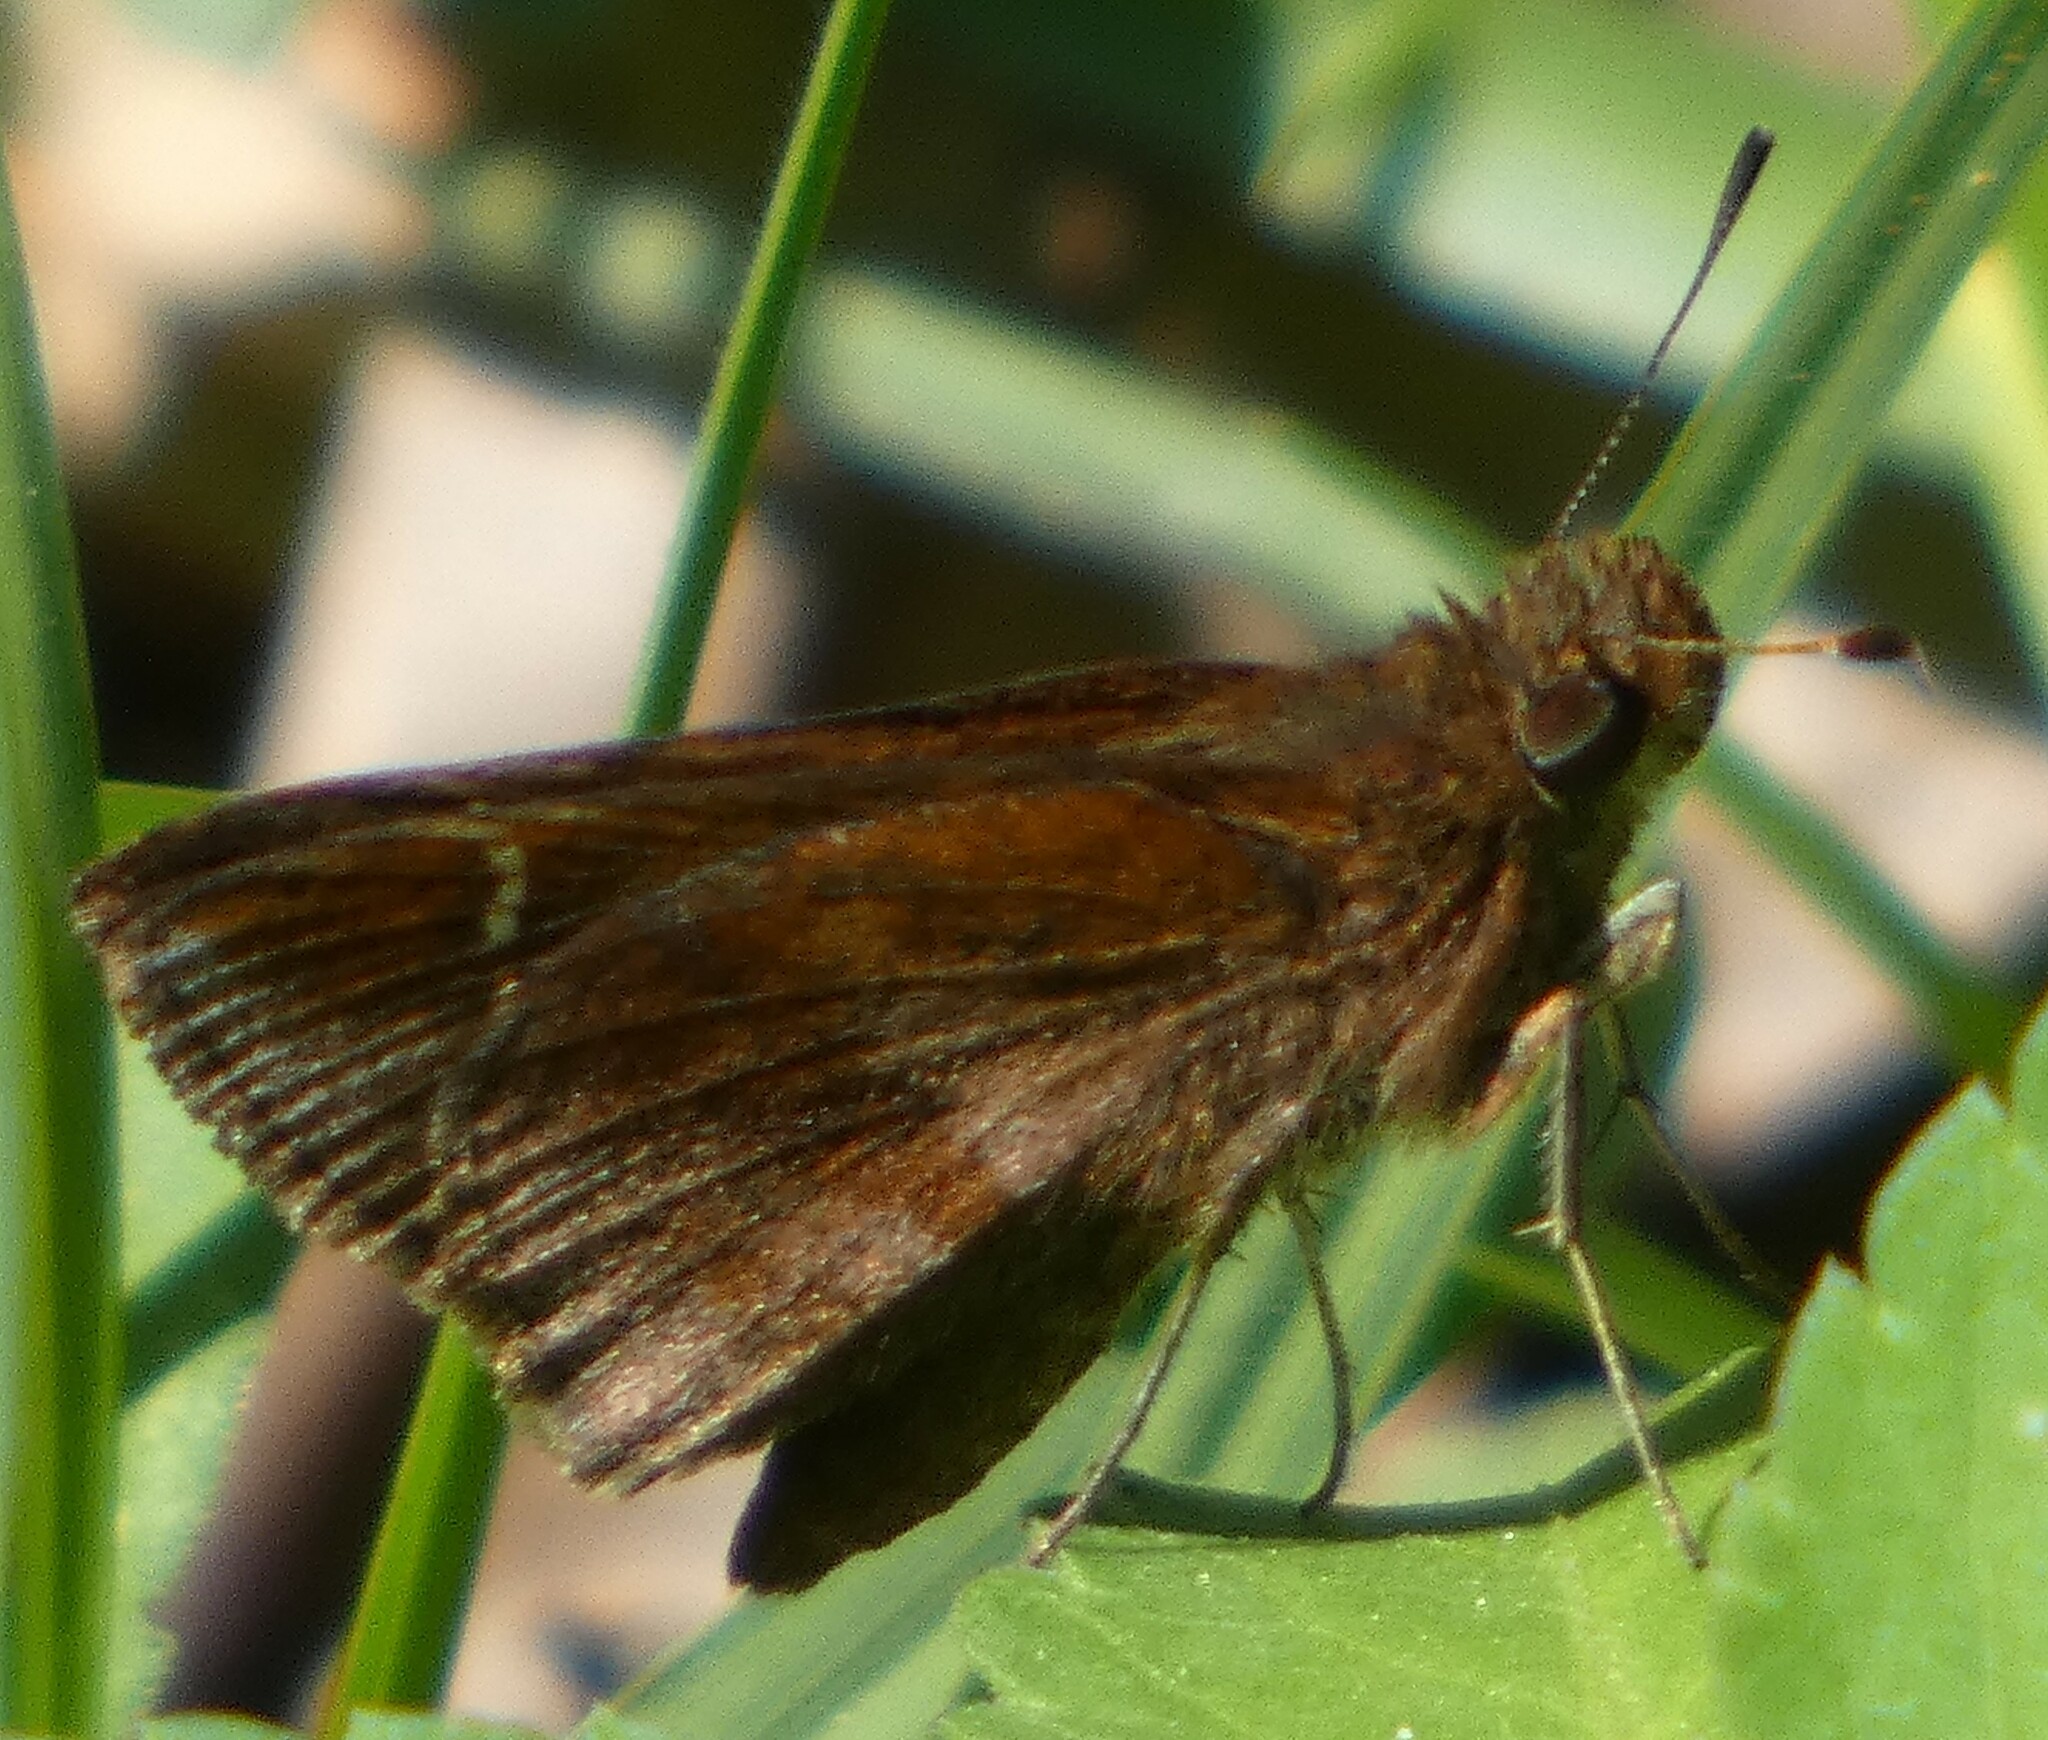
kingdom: Animalia
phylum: Arthropoda
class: Insecta
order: Lepidoptera
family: Hesperiidae
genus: Lerema
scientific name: Lerema accius
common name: Clouded skipper
